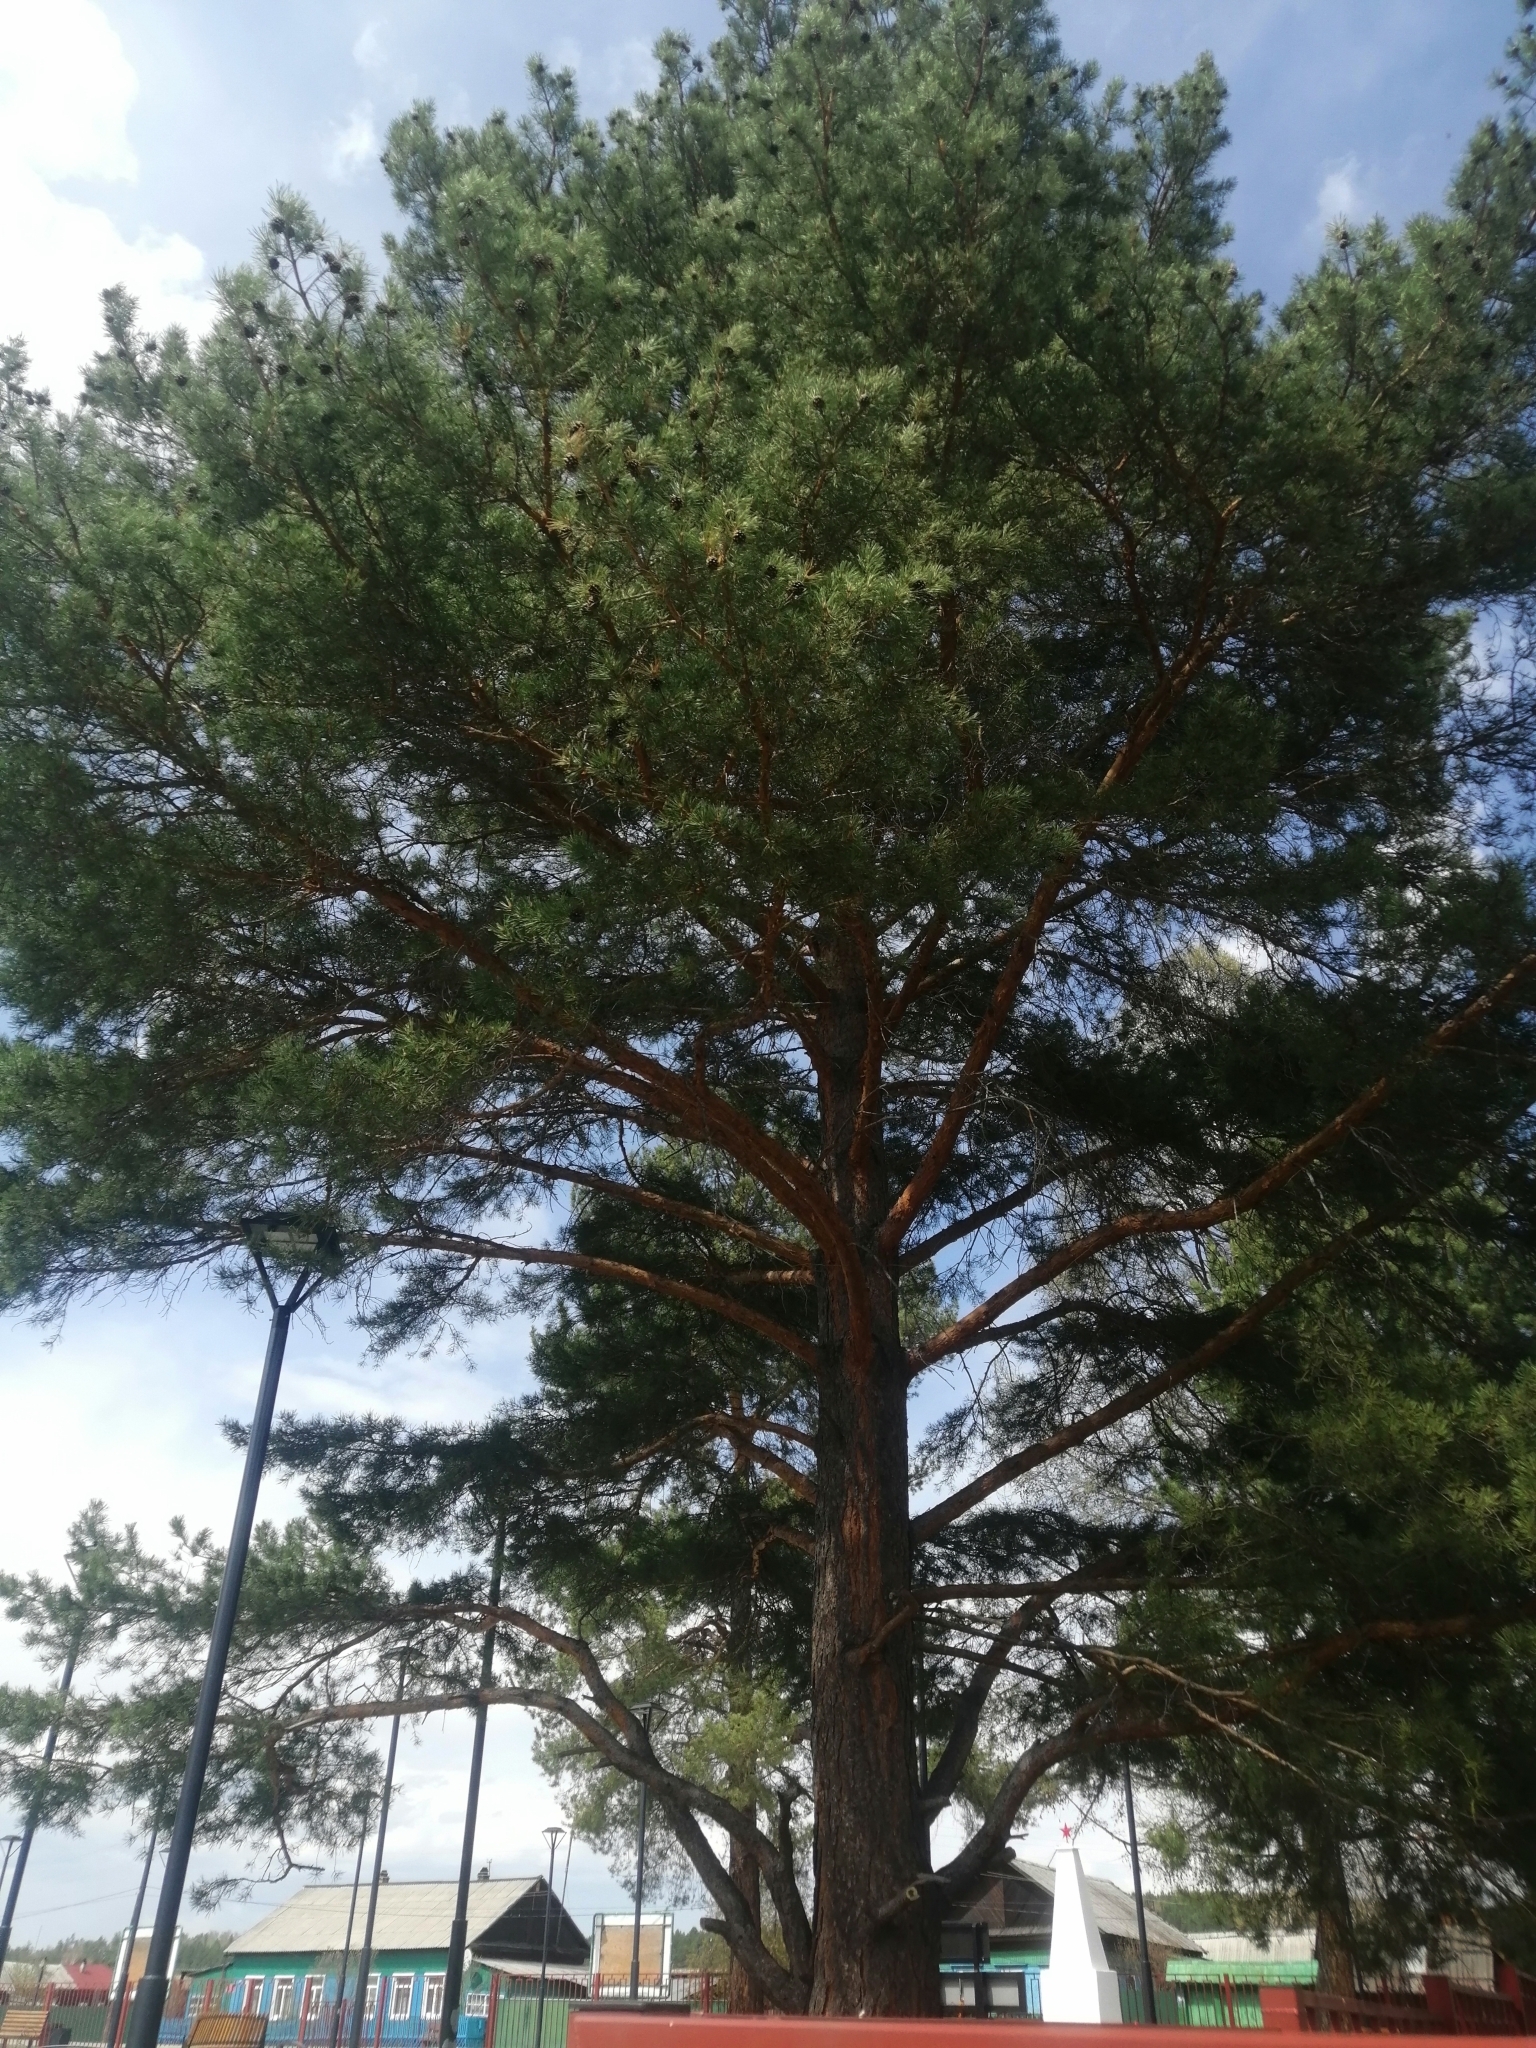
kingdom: Plantae
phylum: Tracheophyta
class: Pinopsida
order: Pinales
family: Pinaceae
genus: Pinus
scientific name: Pinus sylvestris
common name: Scots pine
